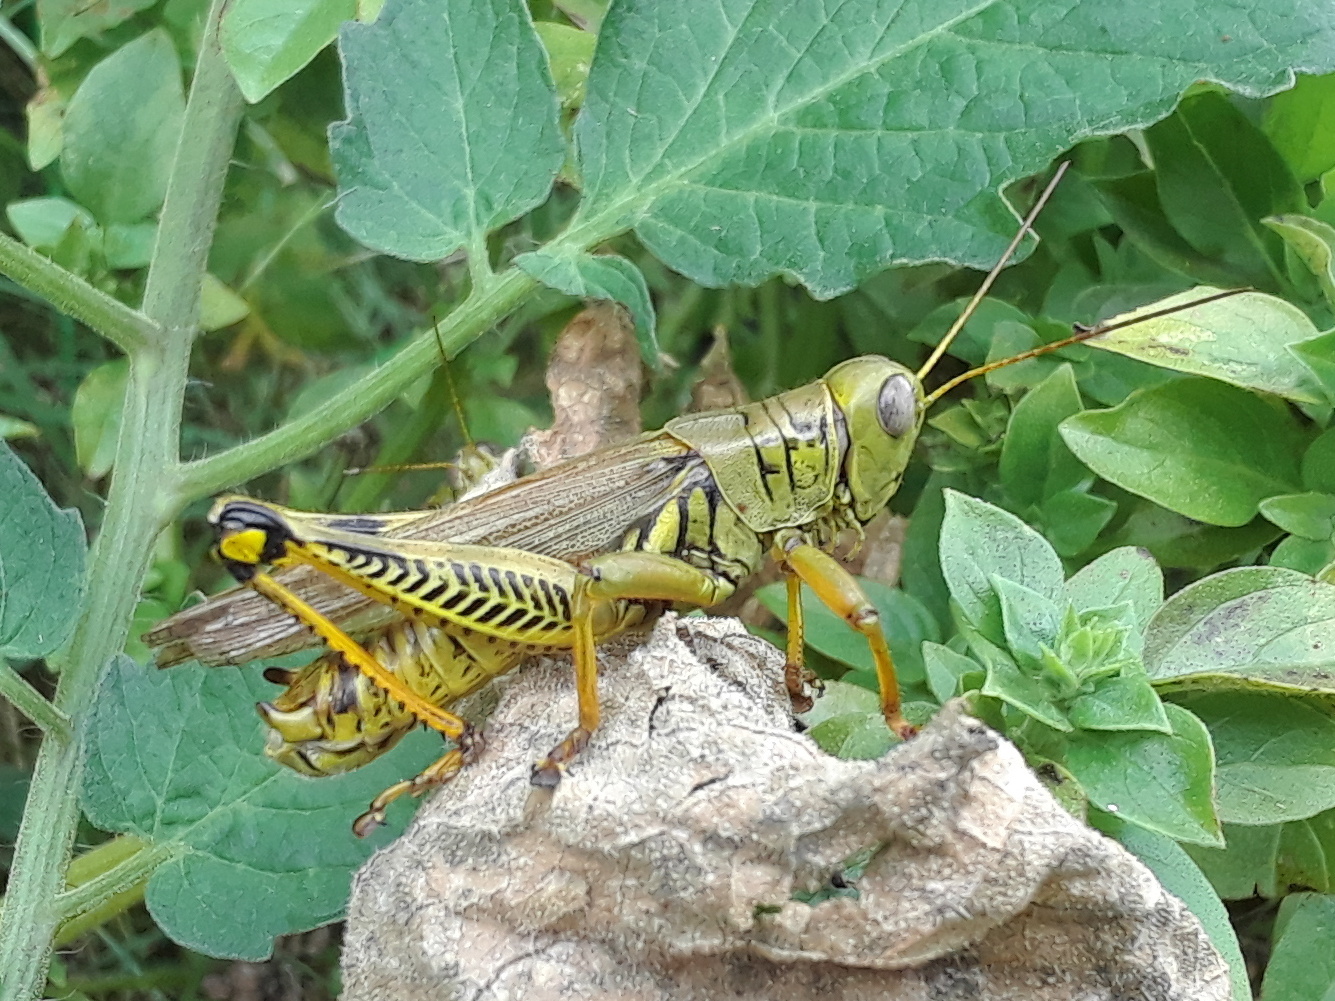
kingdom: Animalia
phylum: Arthropoda
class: Insecta
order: Orthoptera
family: Acrididae
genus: Melanoplus
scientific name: Melanoplus differentialis
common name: Differential grasshopper
